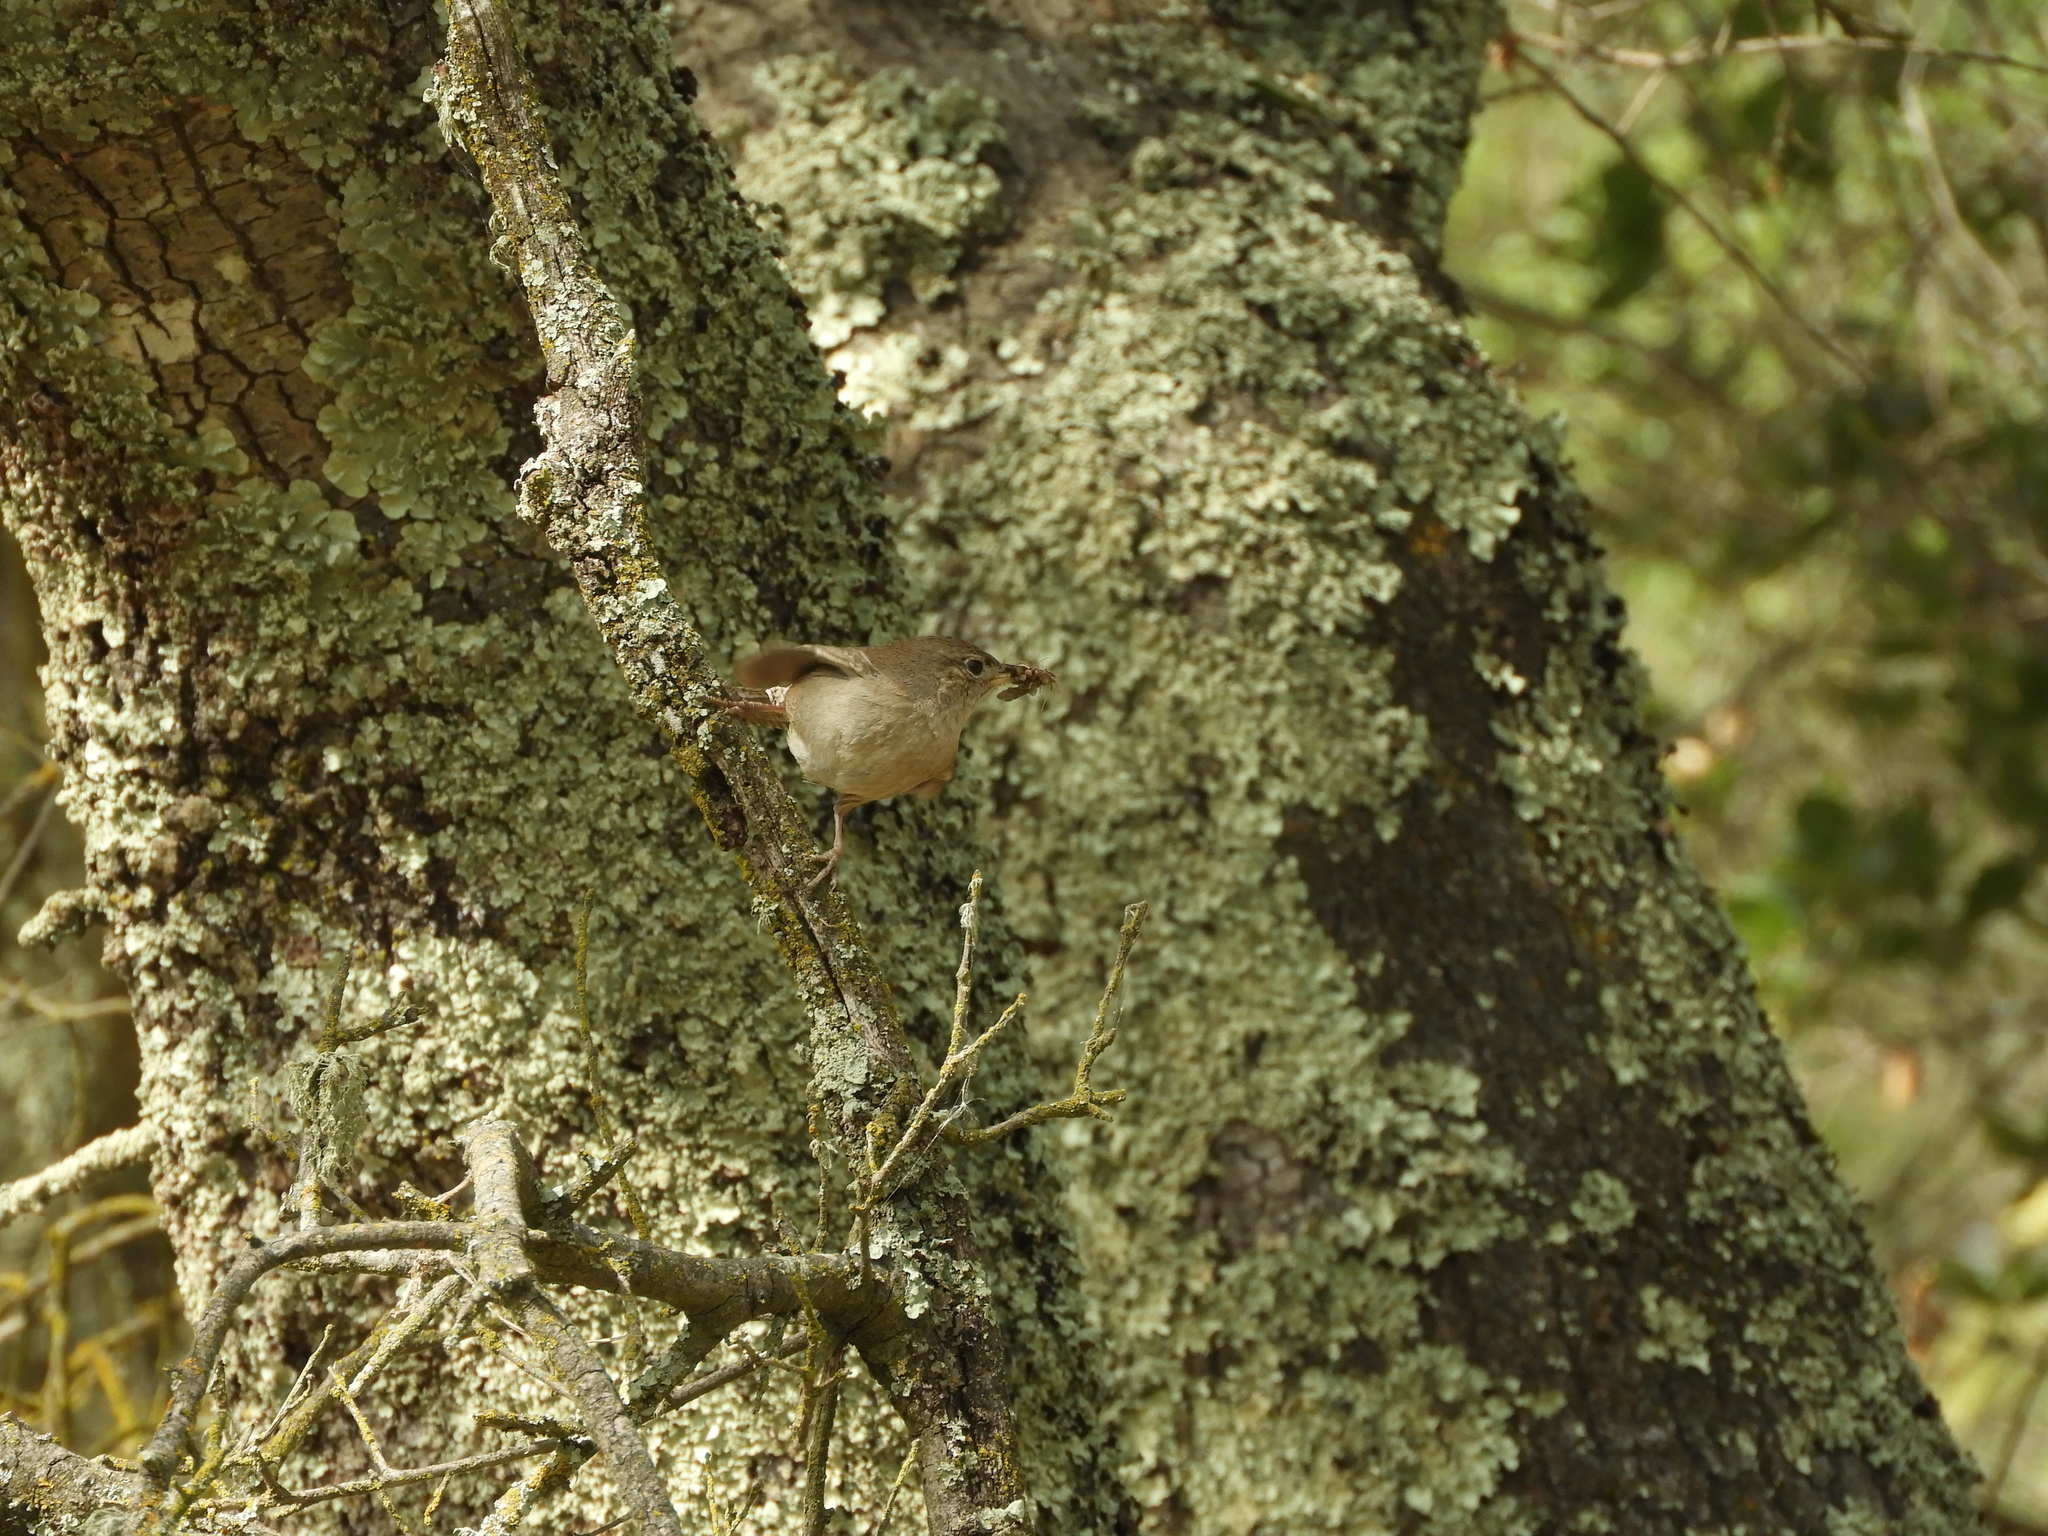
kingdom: Animalia
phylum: Chordata
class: Aves
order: Passeriformes
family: Troglodytidae
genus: Troglodytes
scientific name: Troglodytes aedon
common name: House wren
